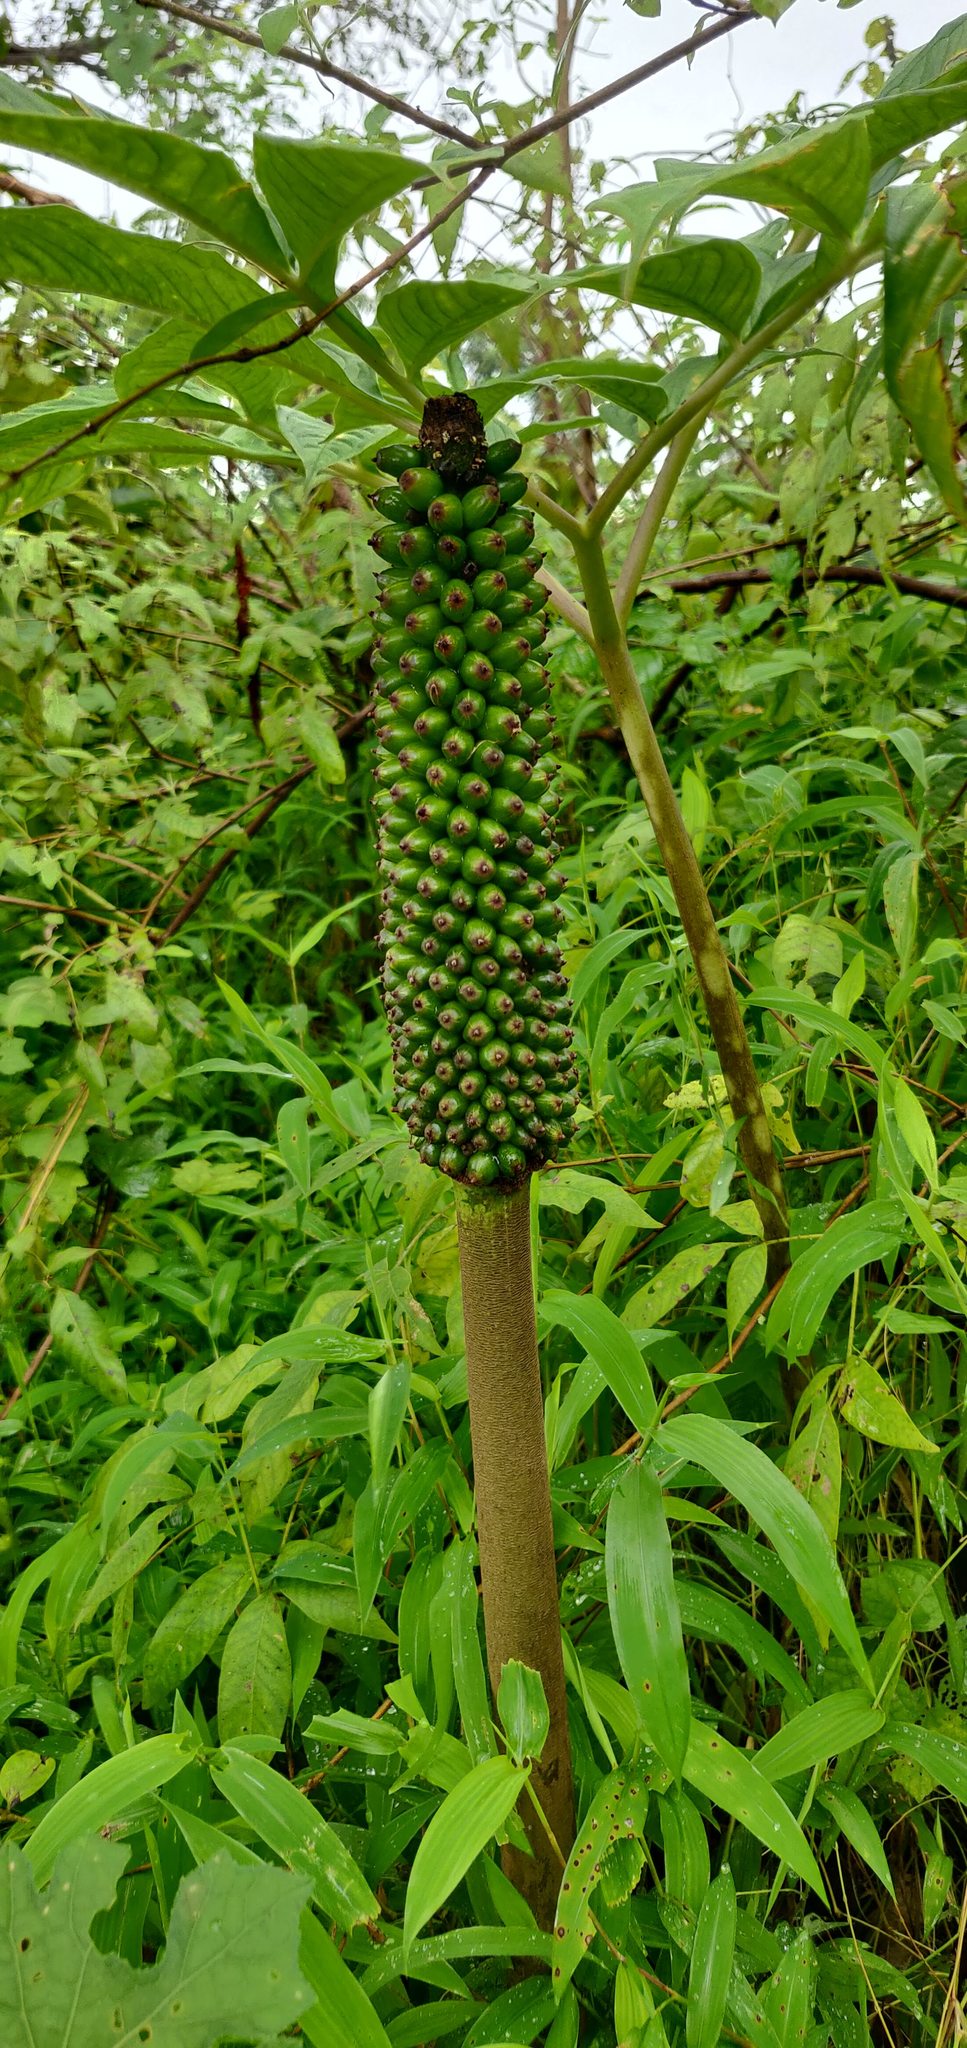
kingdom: Plantae
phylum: Tracheophyta
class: Liliopsida
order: Alismatales
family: Araceae
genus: Amorphophallus
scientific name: Amorphophallus commutatus
